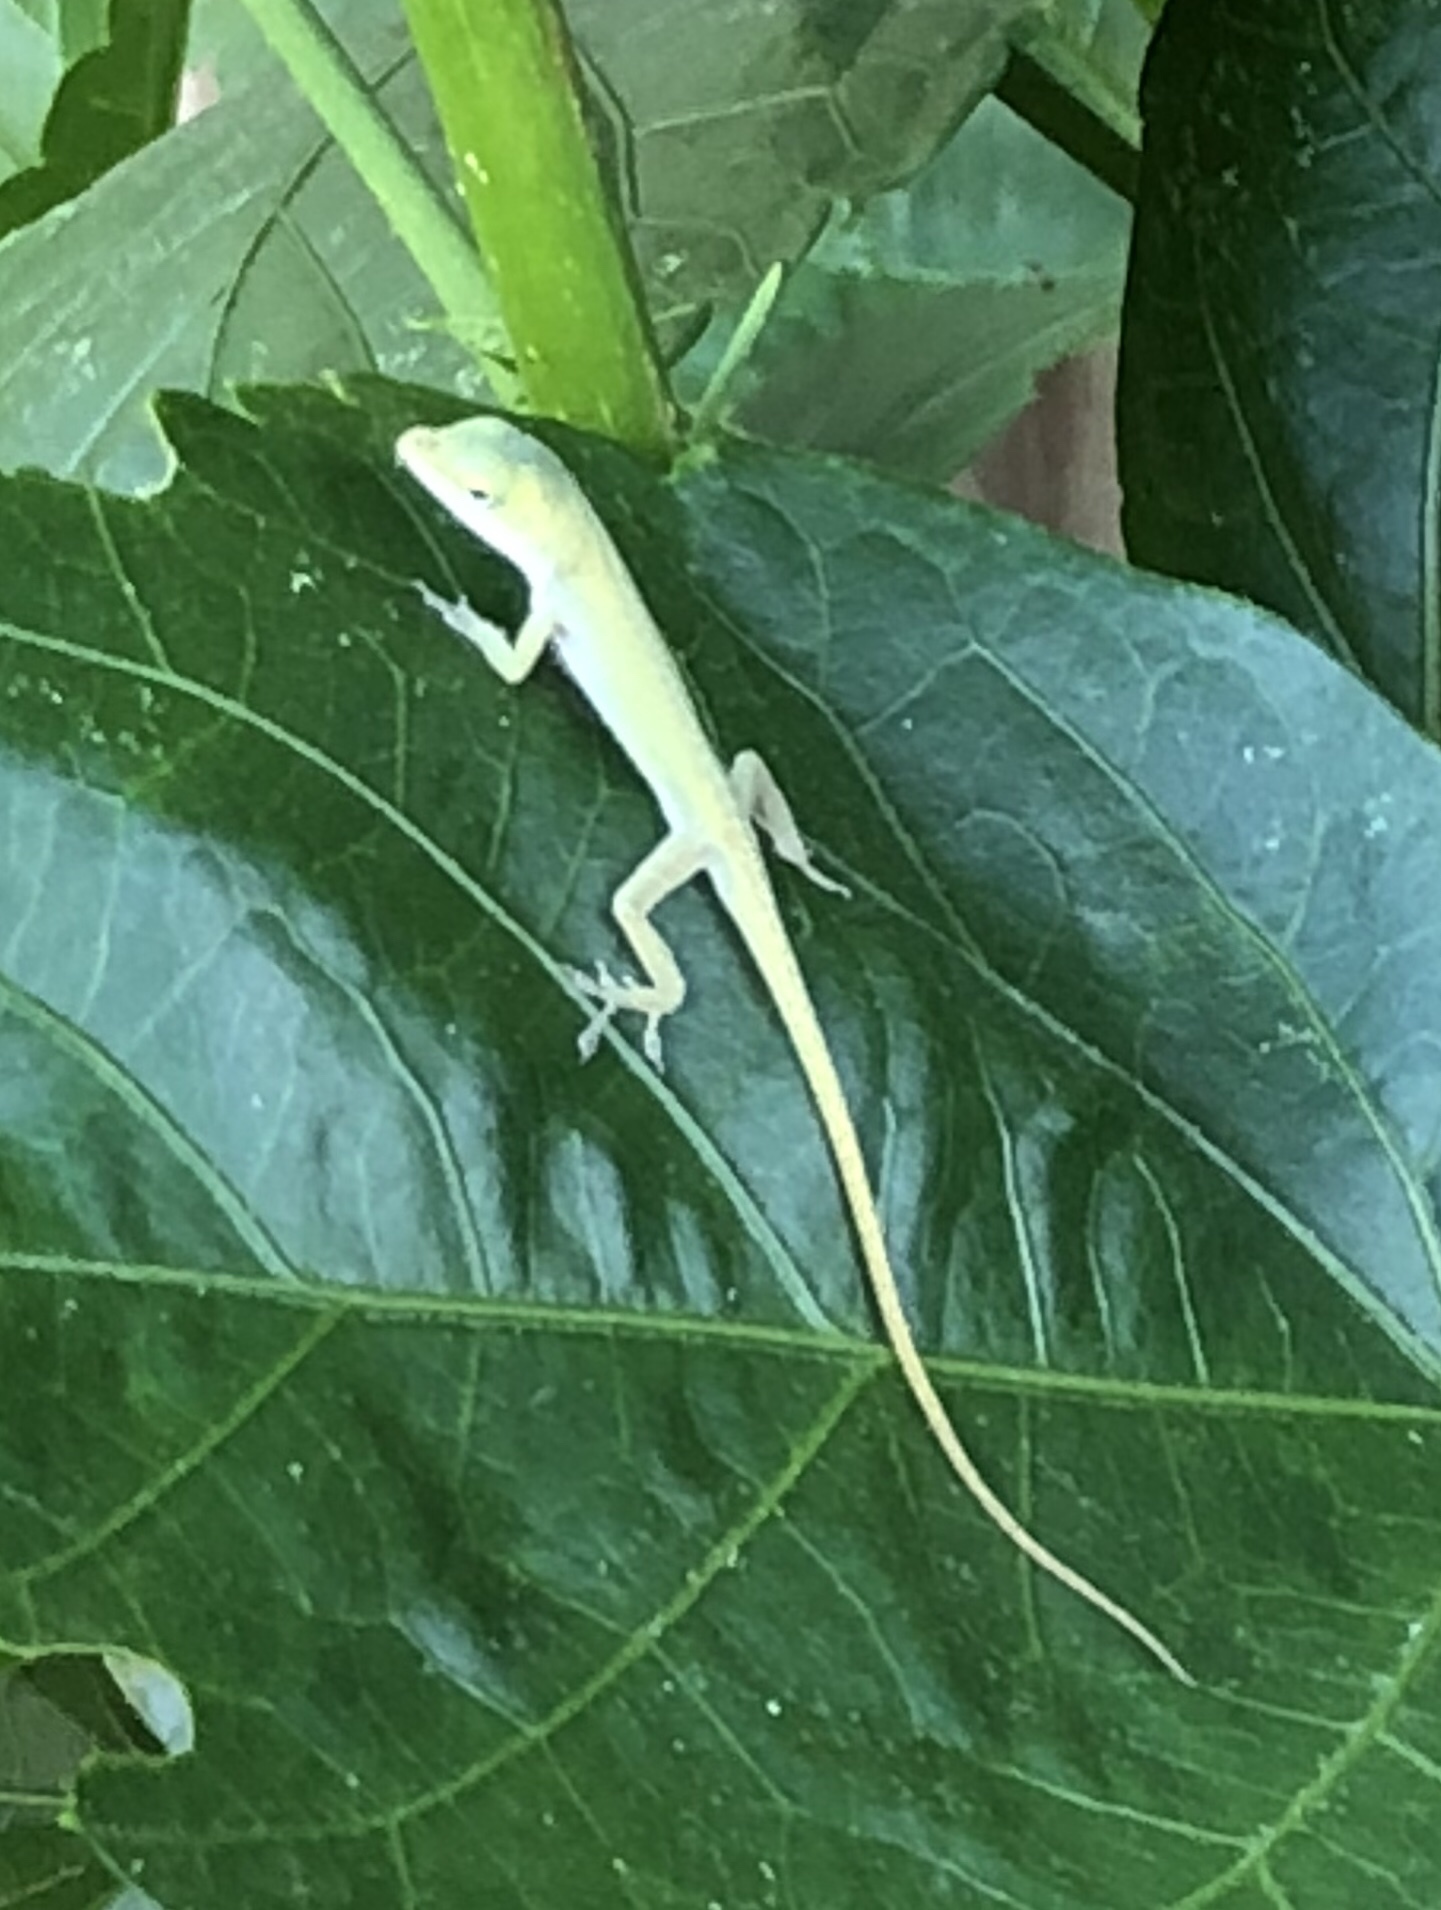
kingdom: Animalia
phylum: Chordata
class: Squamata
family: Dactyloidae
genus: Anolis
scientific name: Anolis carolinensis
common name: Green anole
